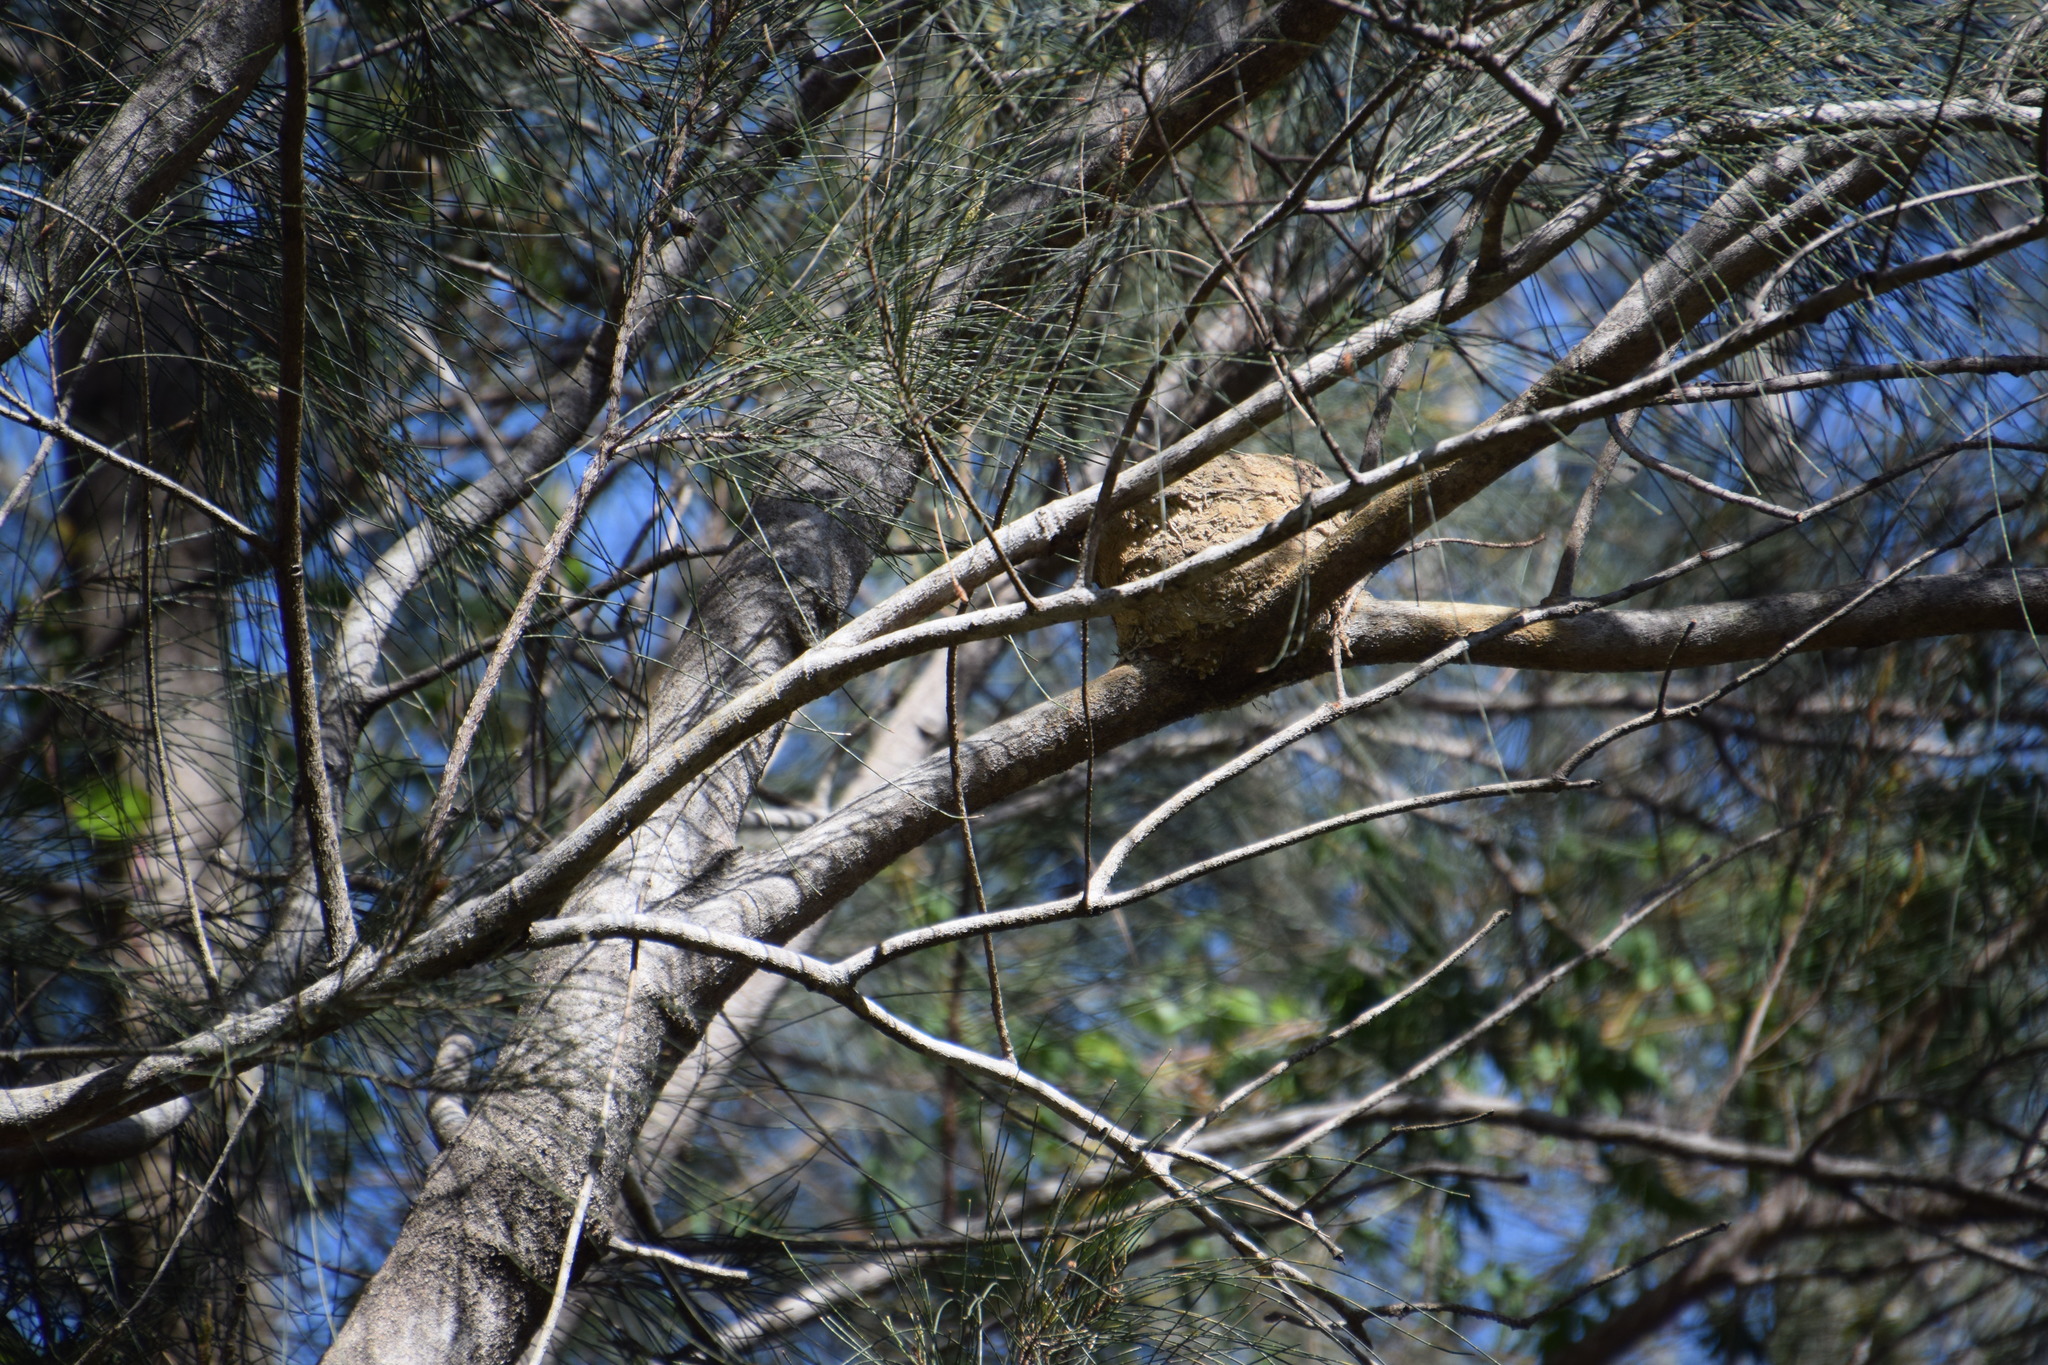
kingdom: Animalia
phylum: Chordata
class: Aves
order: Passeriformes
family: Monarchidae
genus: Grallina
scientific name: Grallina cyanoleuca
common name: Magpie-lark
